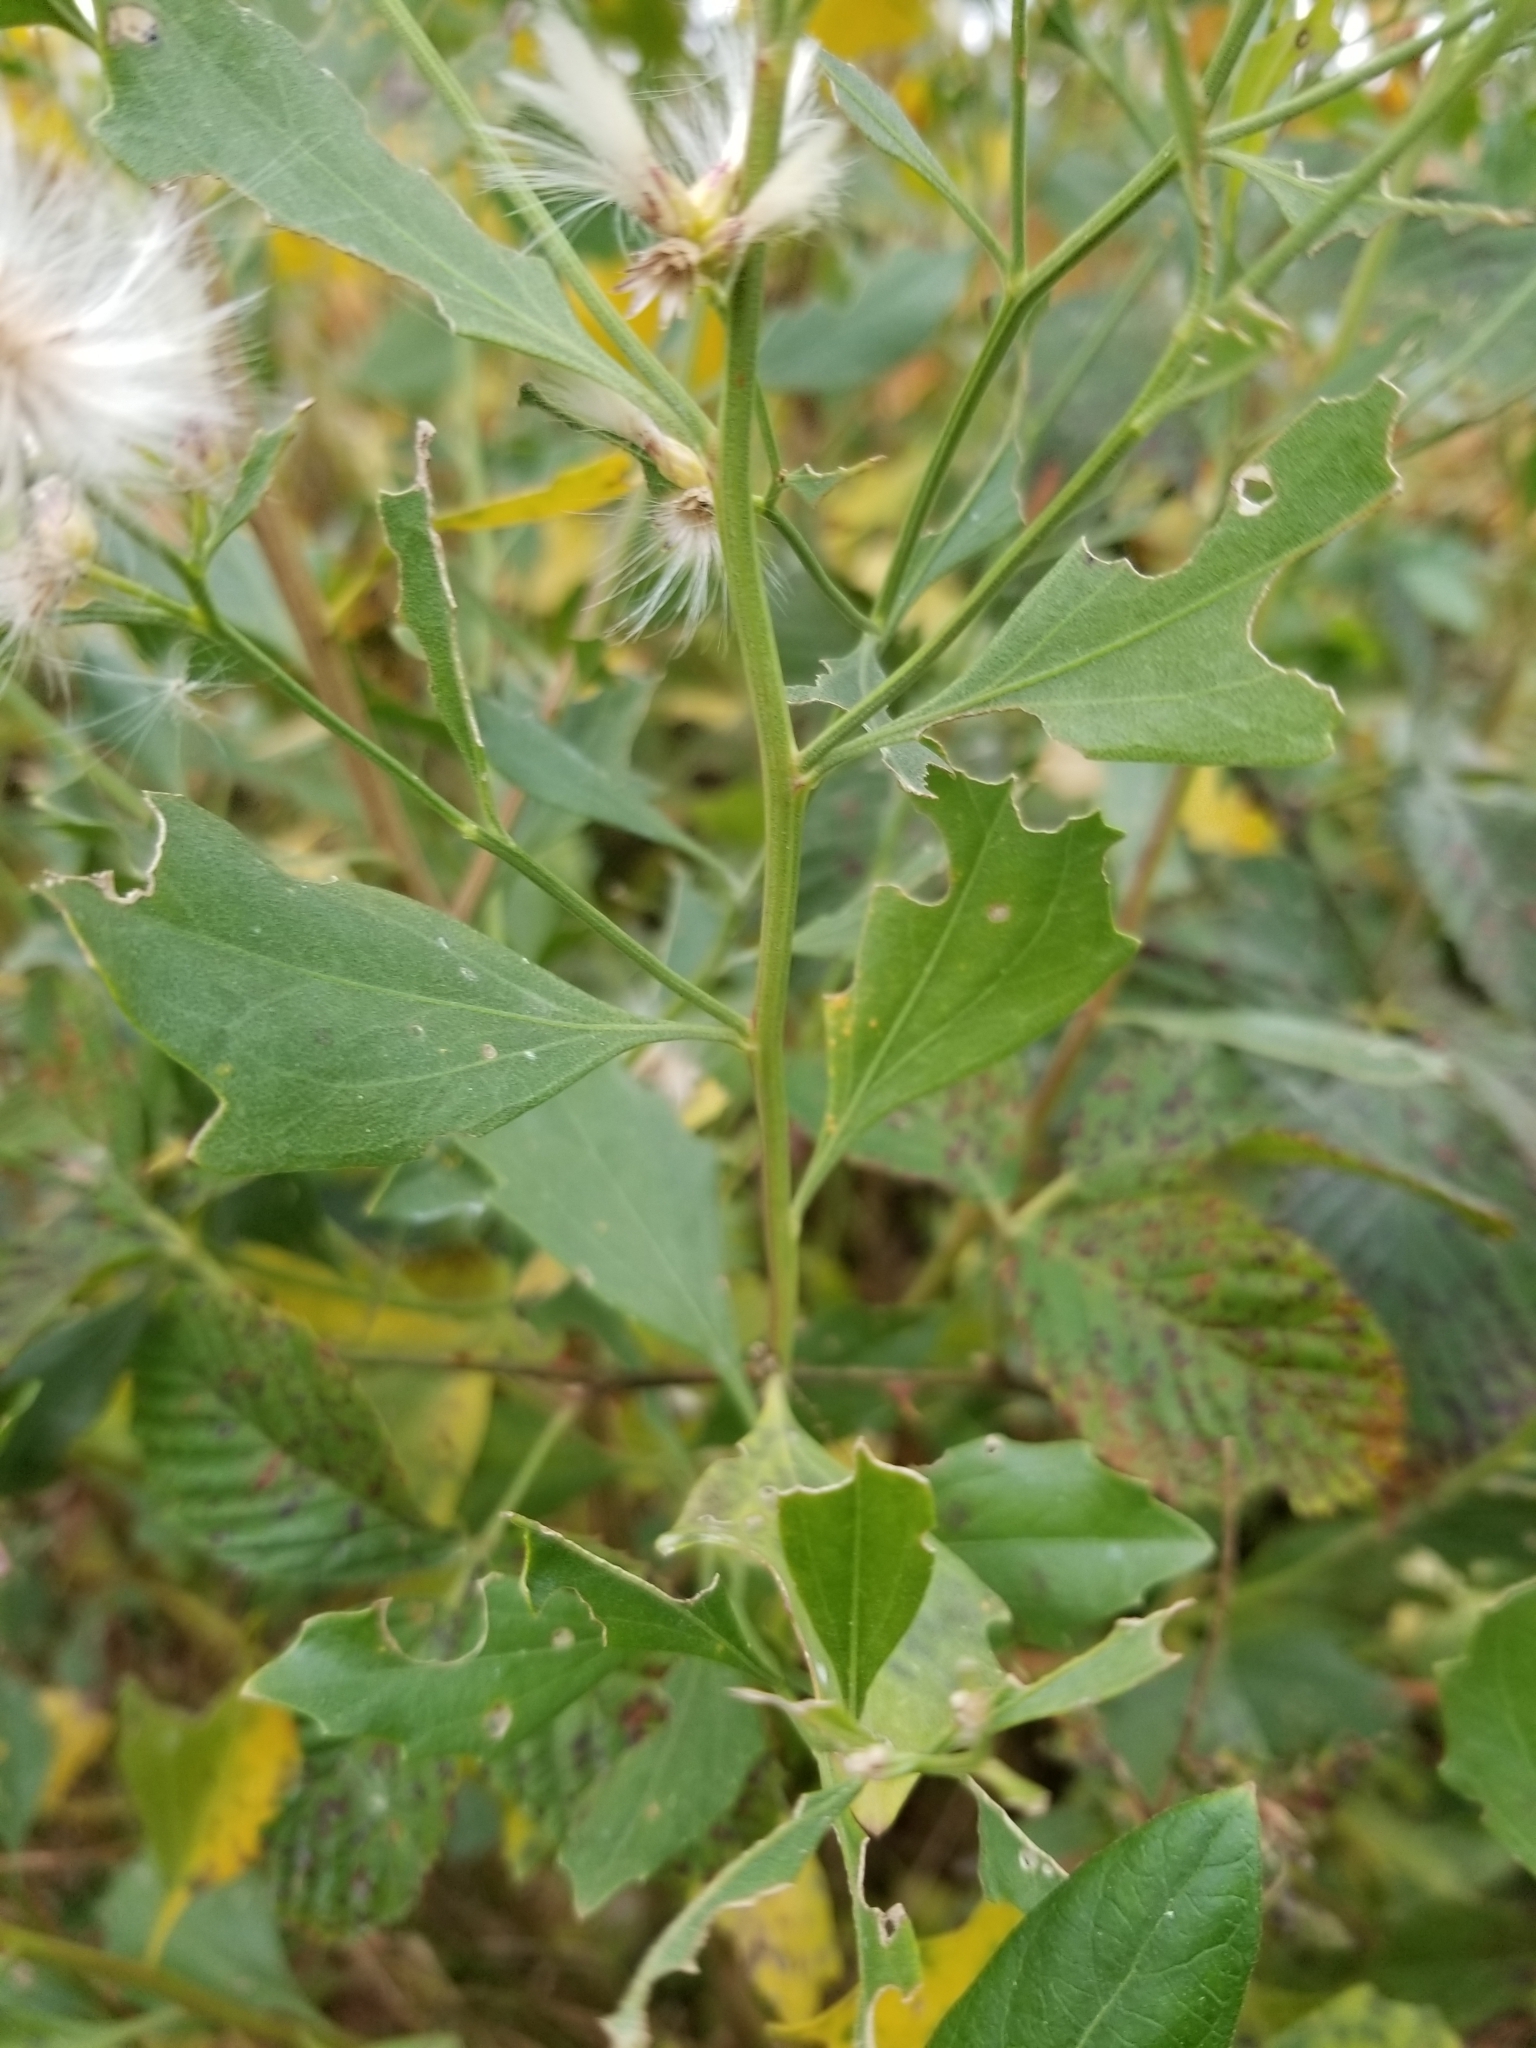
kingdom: Plantae
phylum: Tracheophyta
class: Magnoliopsida
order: Asterales
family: Asteraceae
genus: Baccharis
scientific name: Baccharis halimifolia
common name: Eastern baccharis
